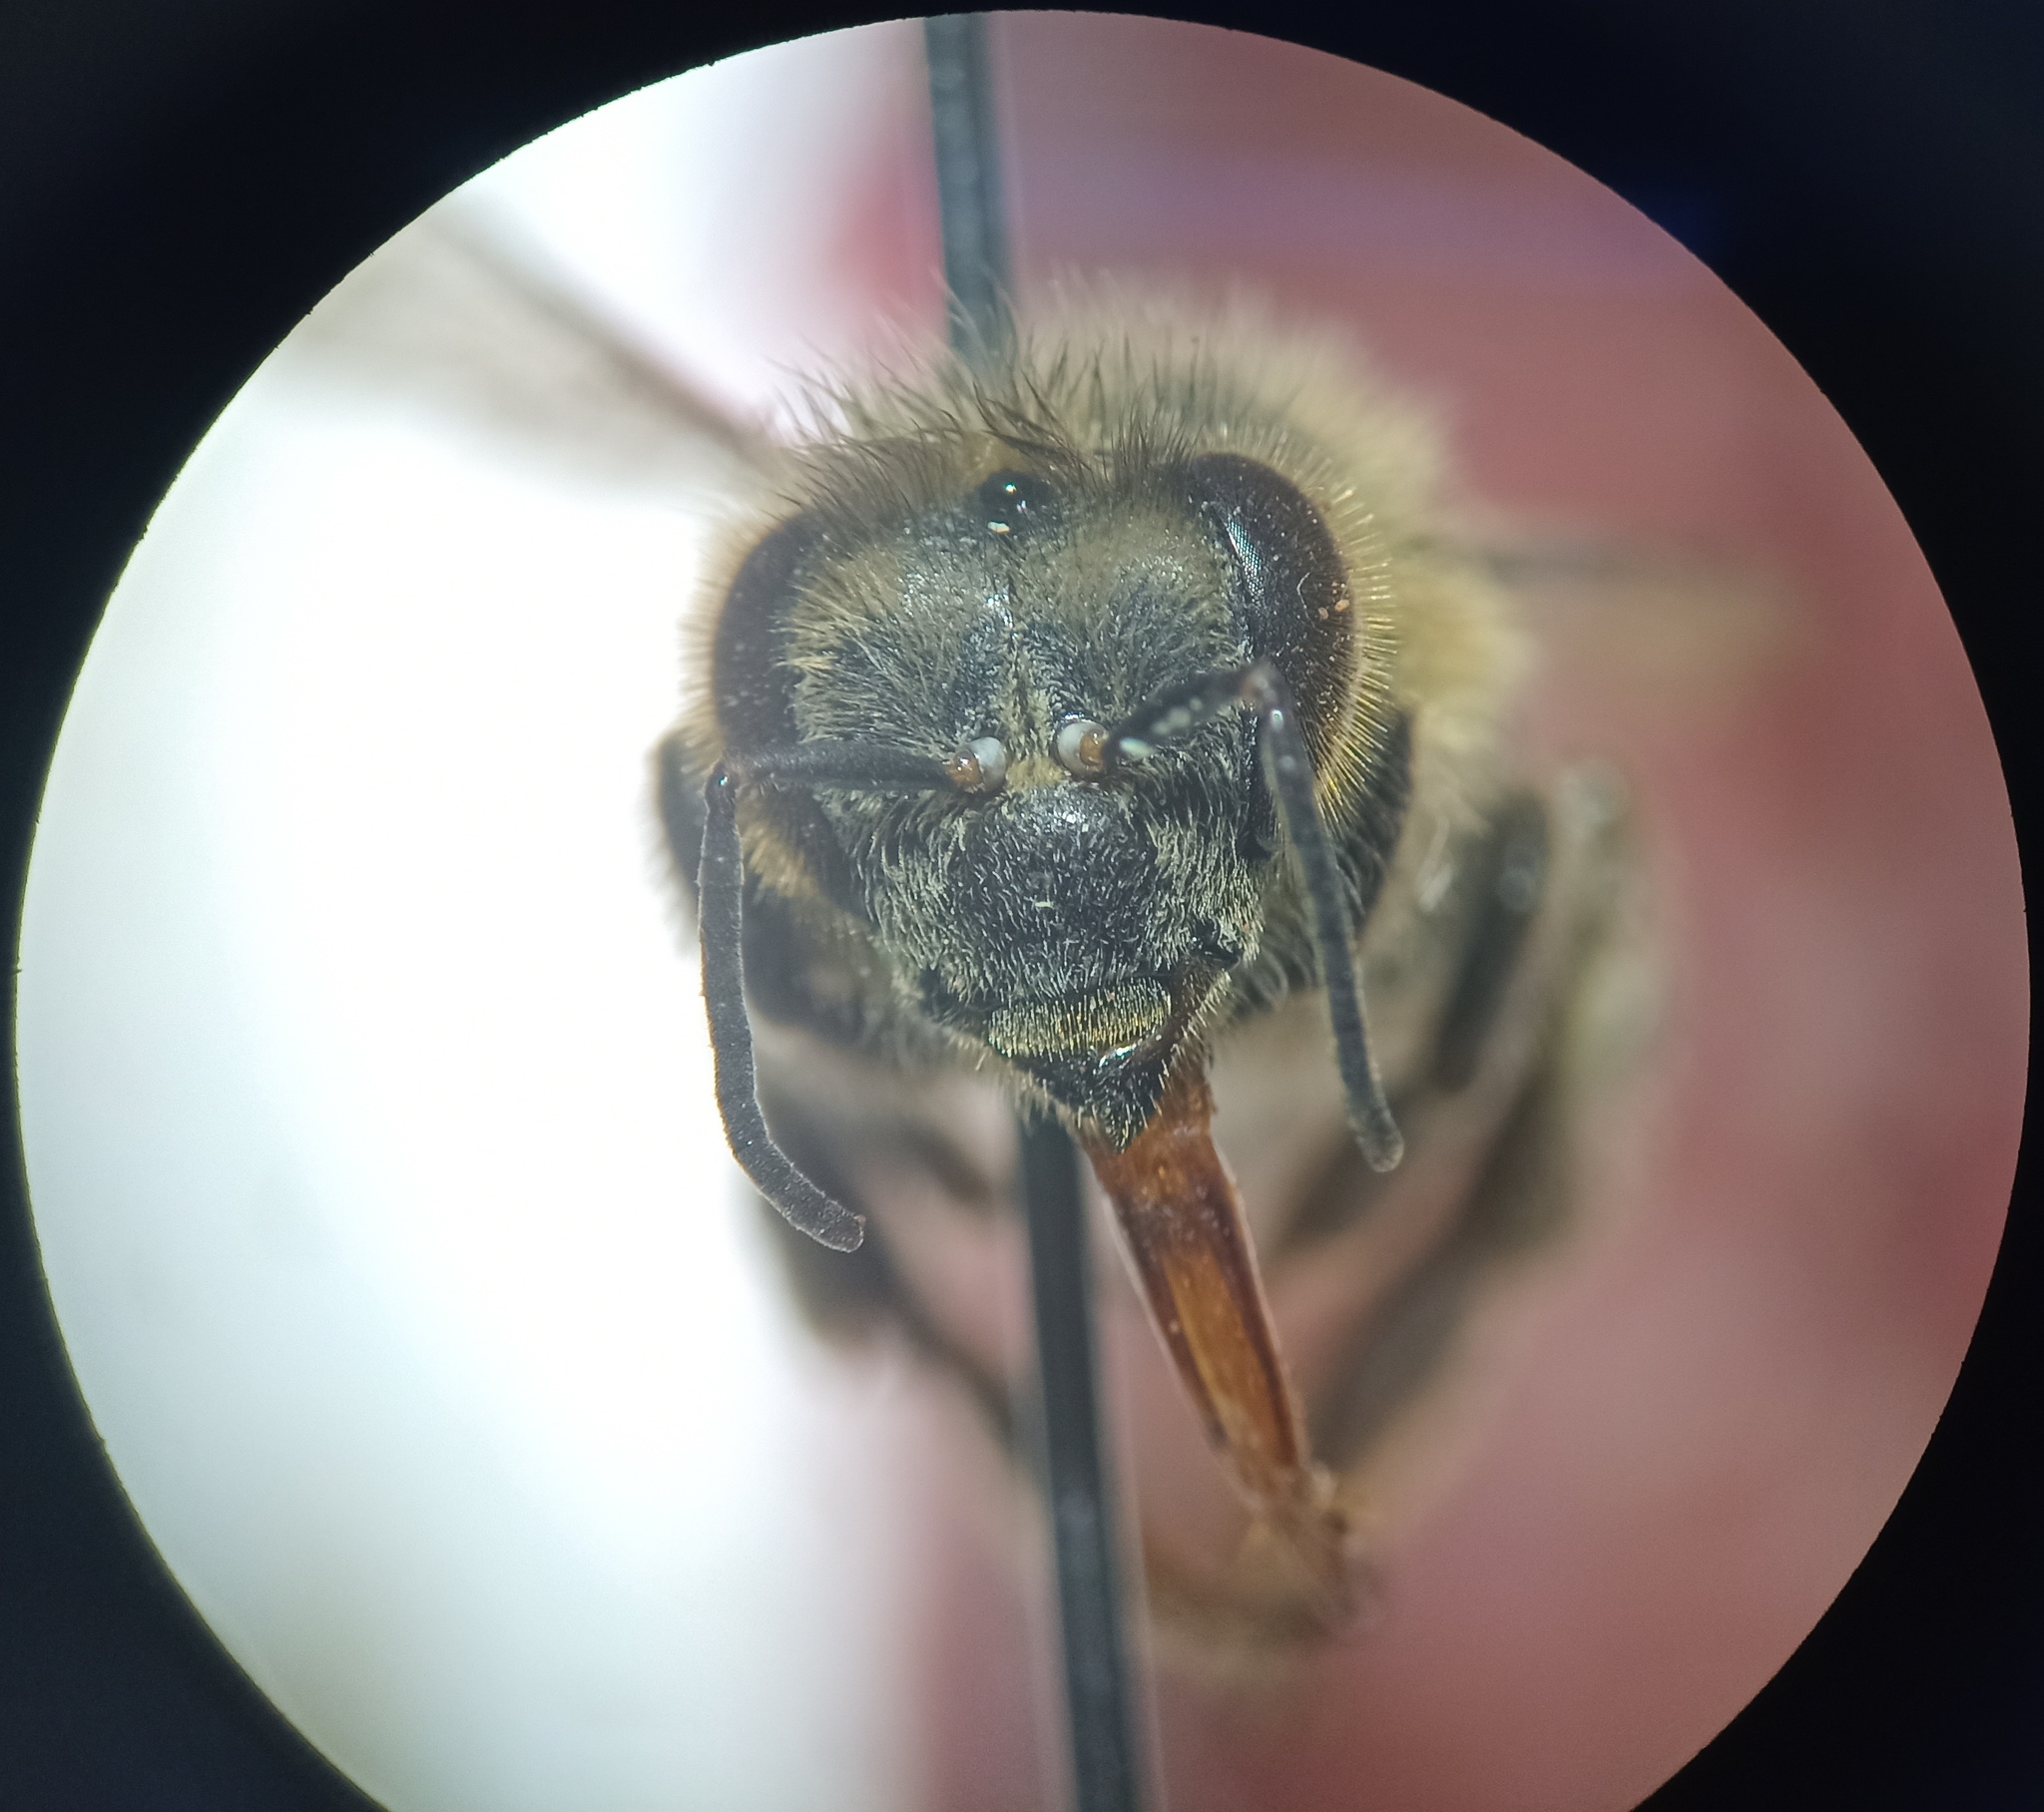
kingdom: Animalia
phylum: Arthropoda
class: Insecta
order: Hymenoptera
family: Apidae
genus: Apis
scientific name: Apis mellifera
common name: Honey bee
